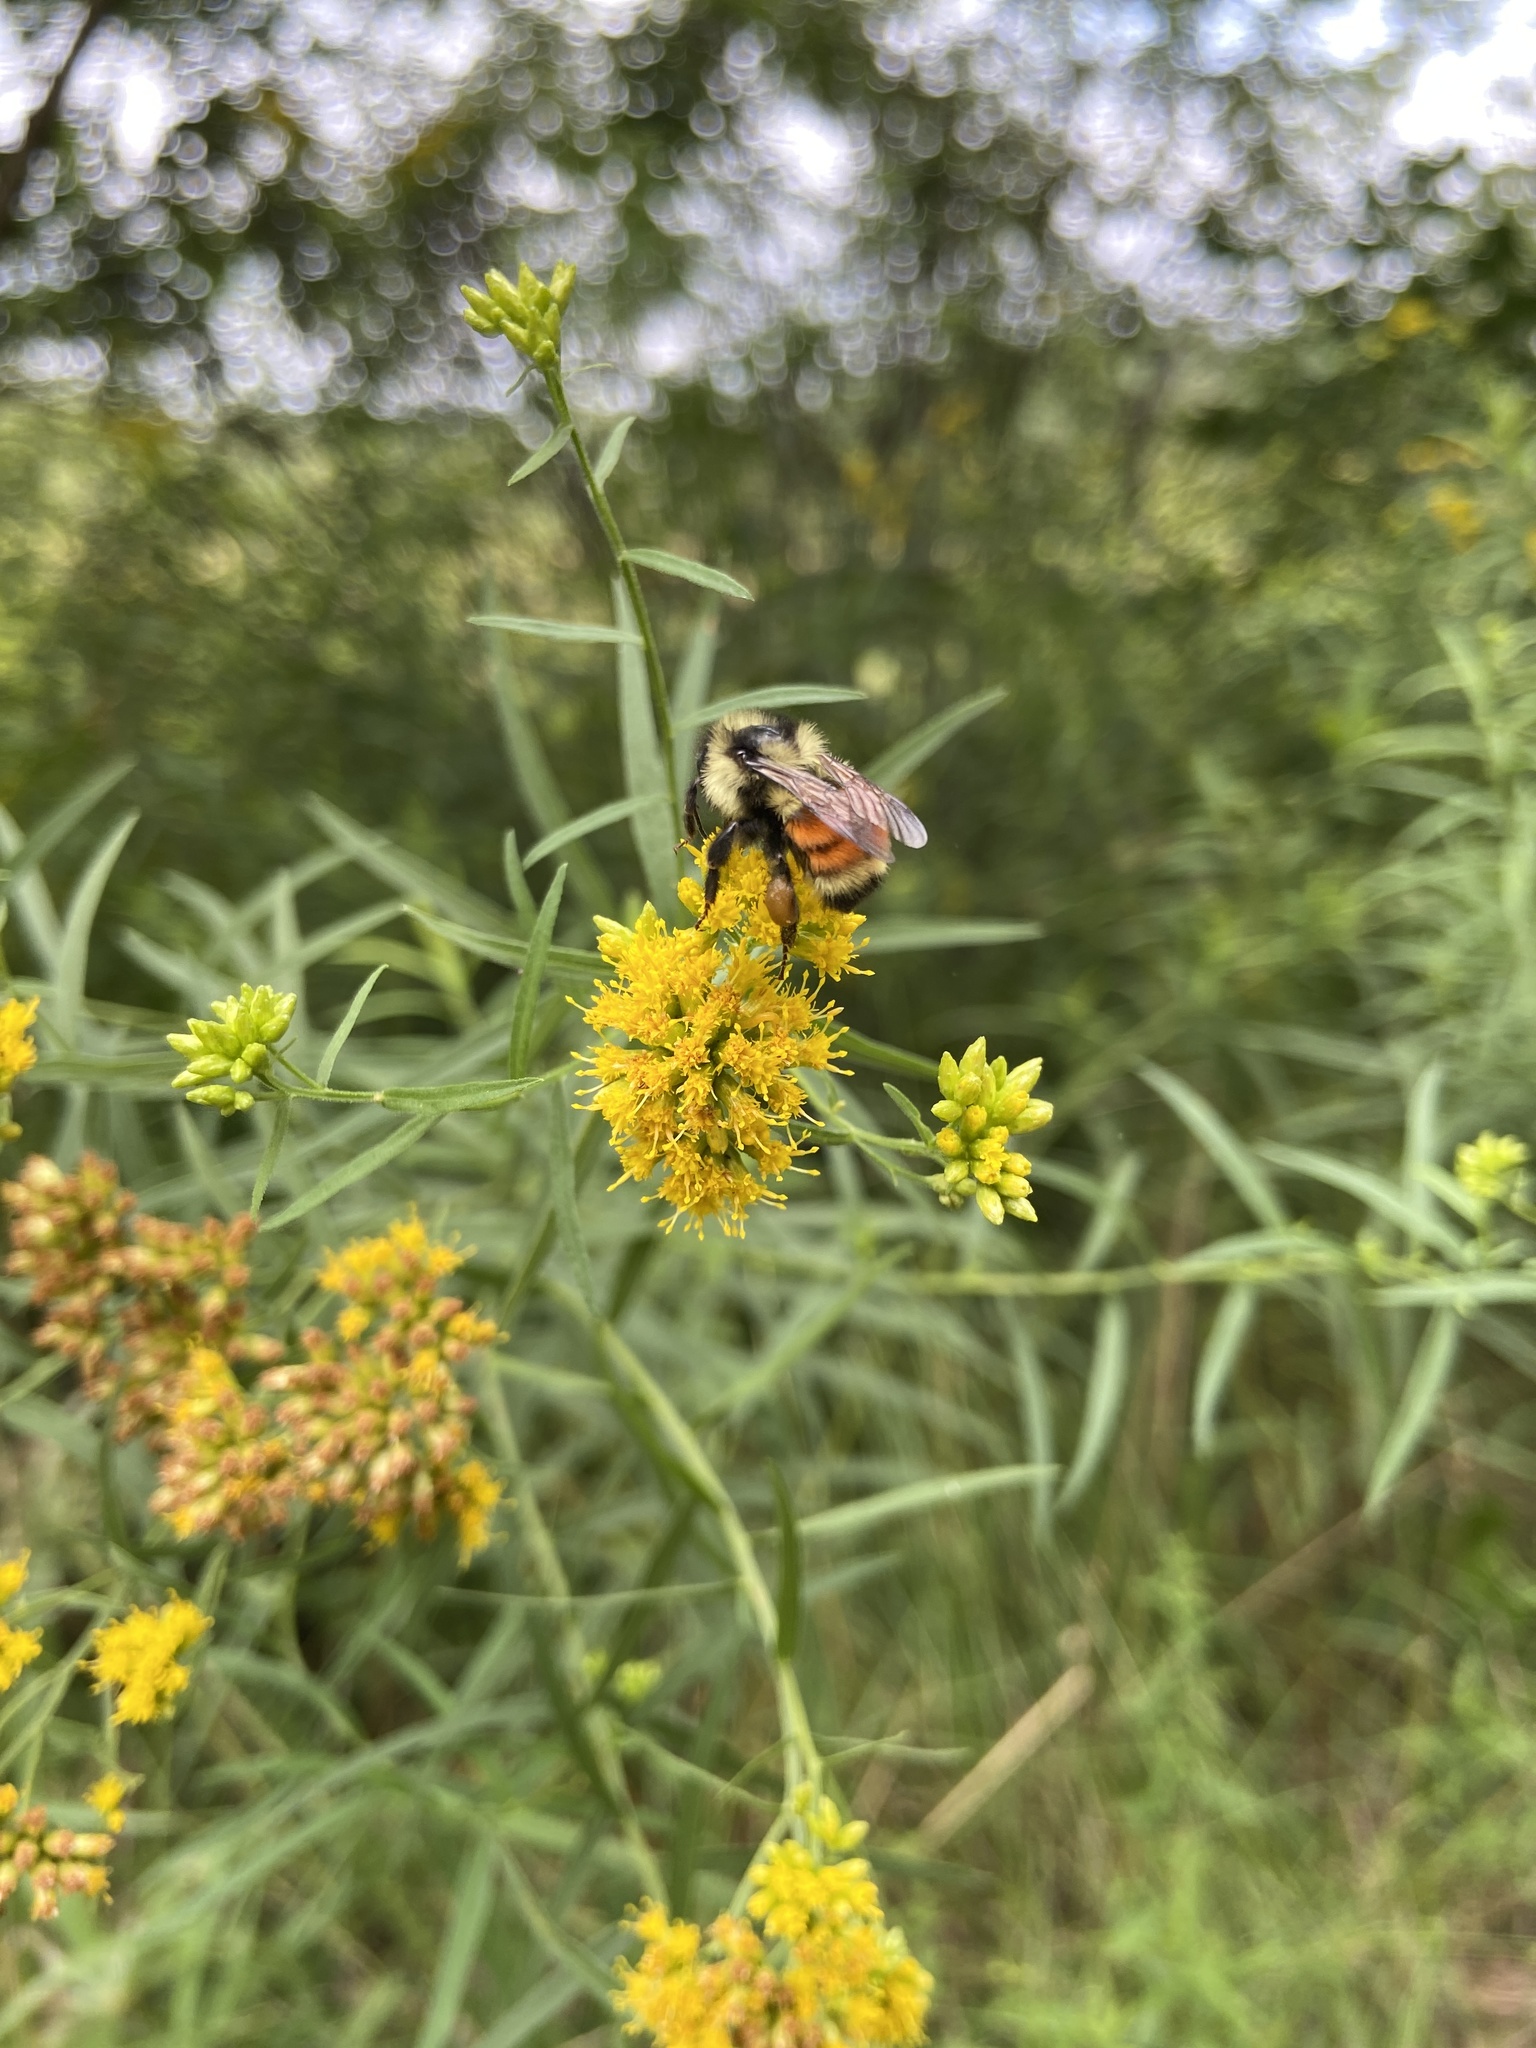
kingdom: Animalia
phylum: Arthropoda
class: Insecta
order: Hymenoptera
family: Apidae
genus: Bombus
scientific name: Bombus ternarius
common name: Tri-colored bumble bee
